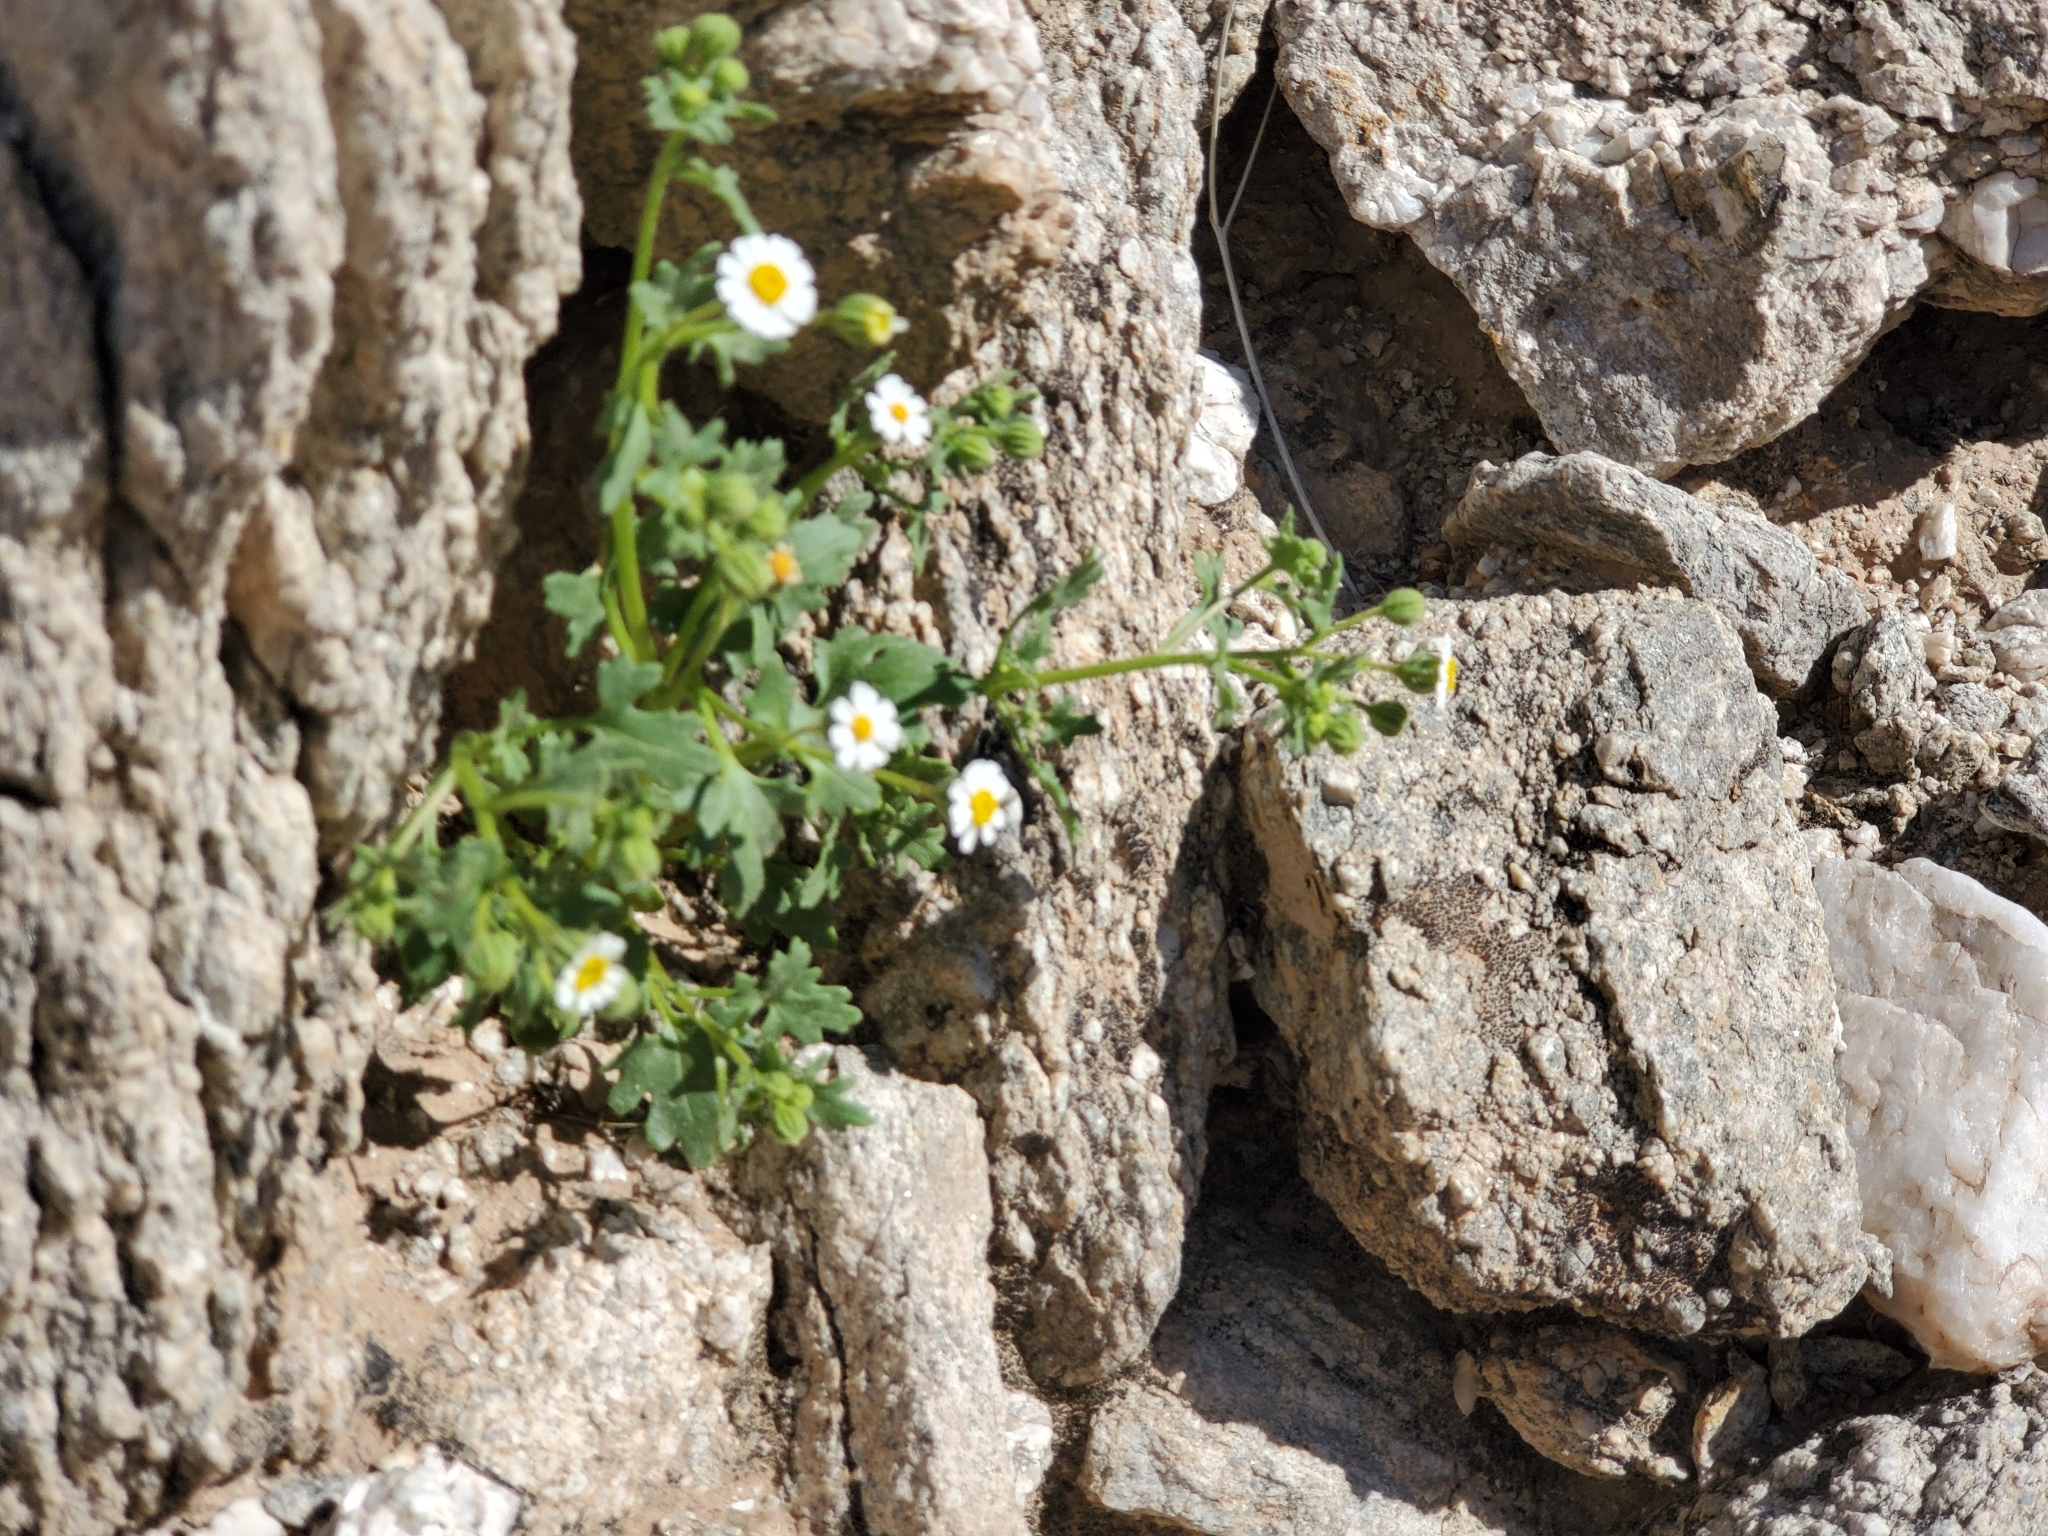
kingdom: Plantae
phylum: Tracheophyta
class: Magnoliopsida
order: Asterales
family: Asteraceae
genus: Laphamia
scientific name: Laphamia emoryi
